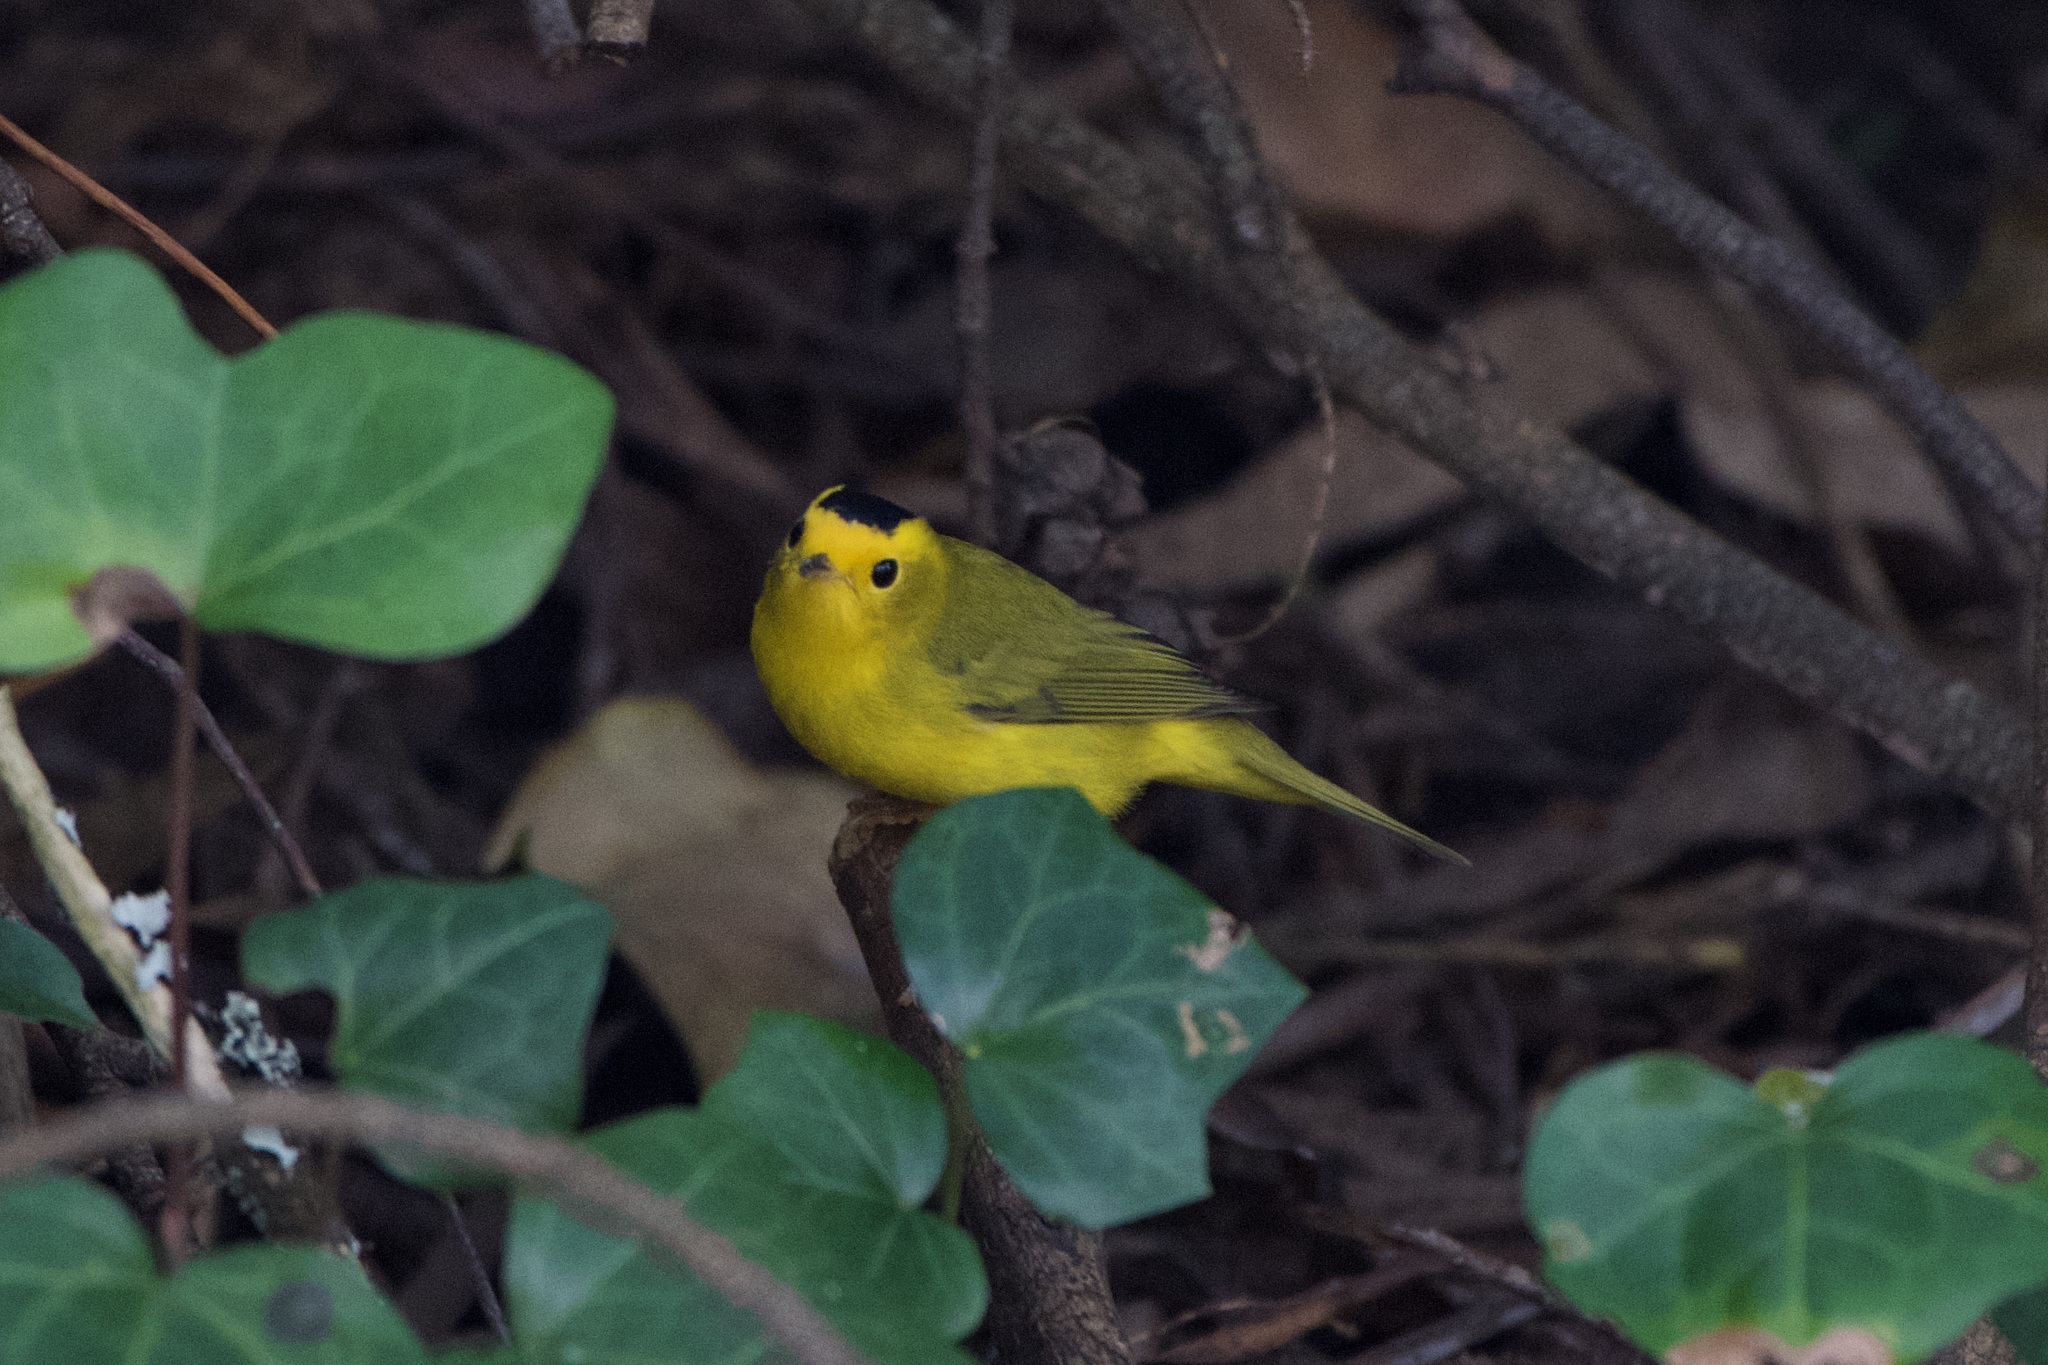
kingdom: Animalia
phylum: Chordata
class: Aves
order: Passeriformes
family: Parulidae
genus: Cardellina
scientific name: Cardellina pusilla
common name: Wilson's warbler
